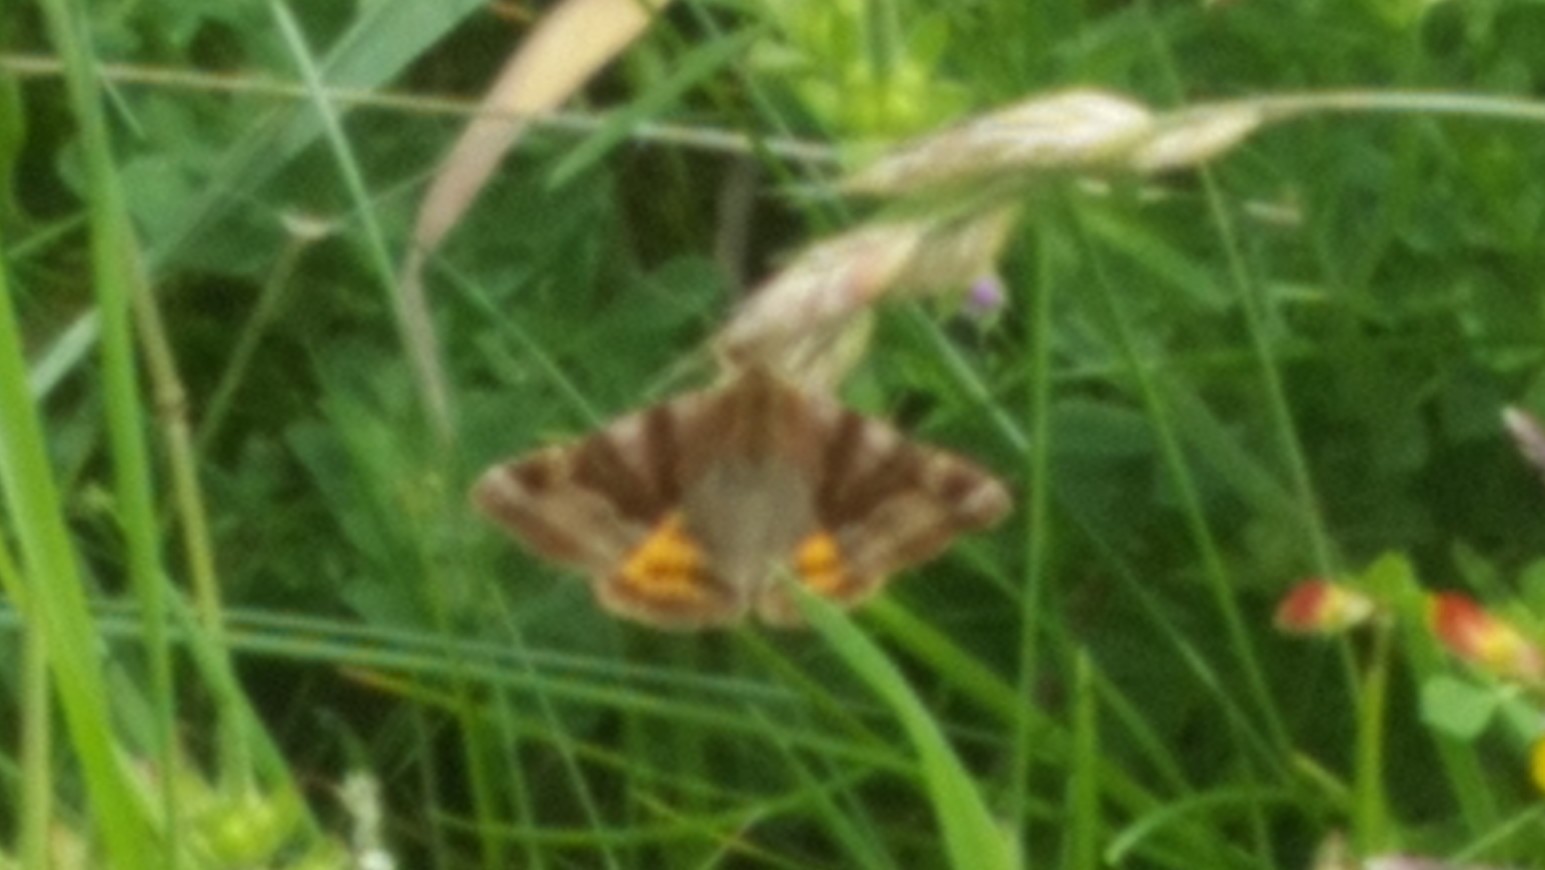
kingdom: Animalia
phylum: Arthropoda
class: Insecta
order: Lepidoptera
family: Erebidae
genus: Euclidia
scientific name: Euclidia glyphica
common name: Burnet companion
